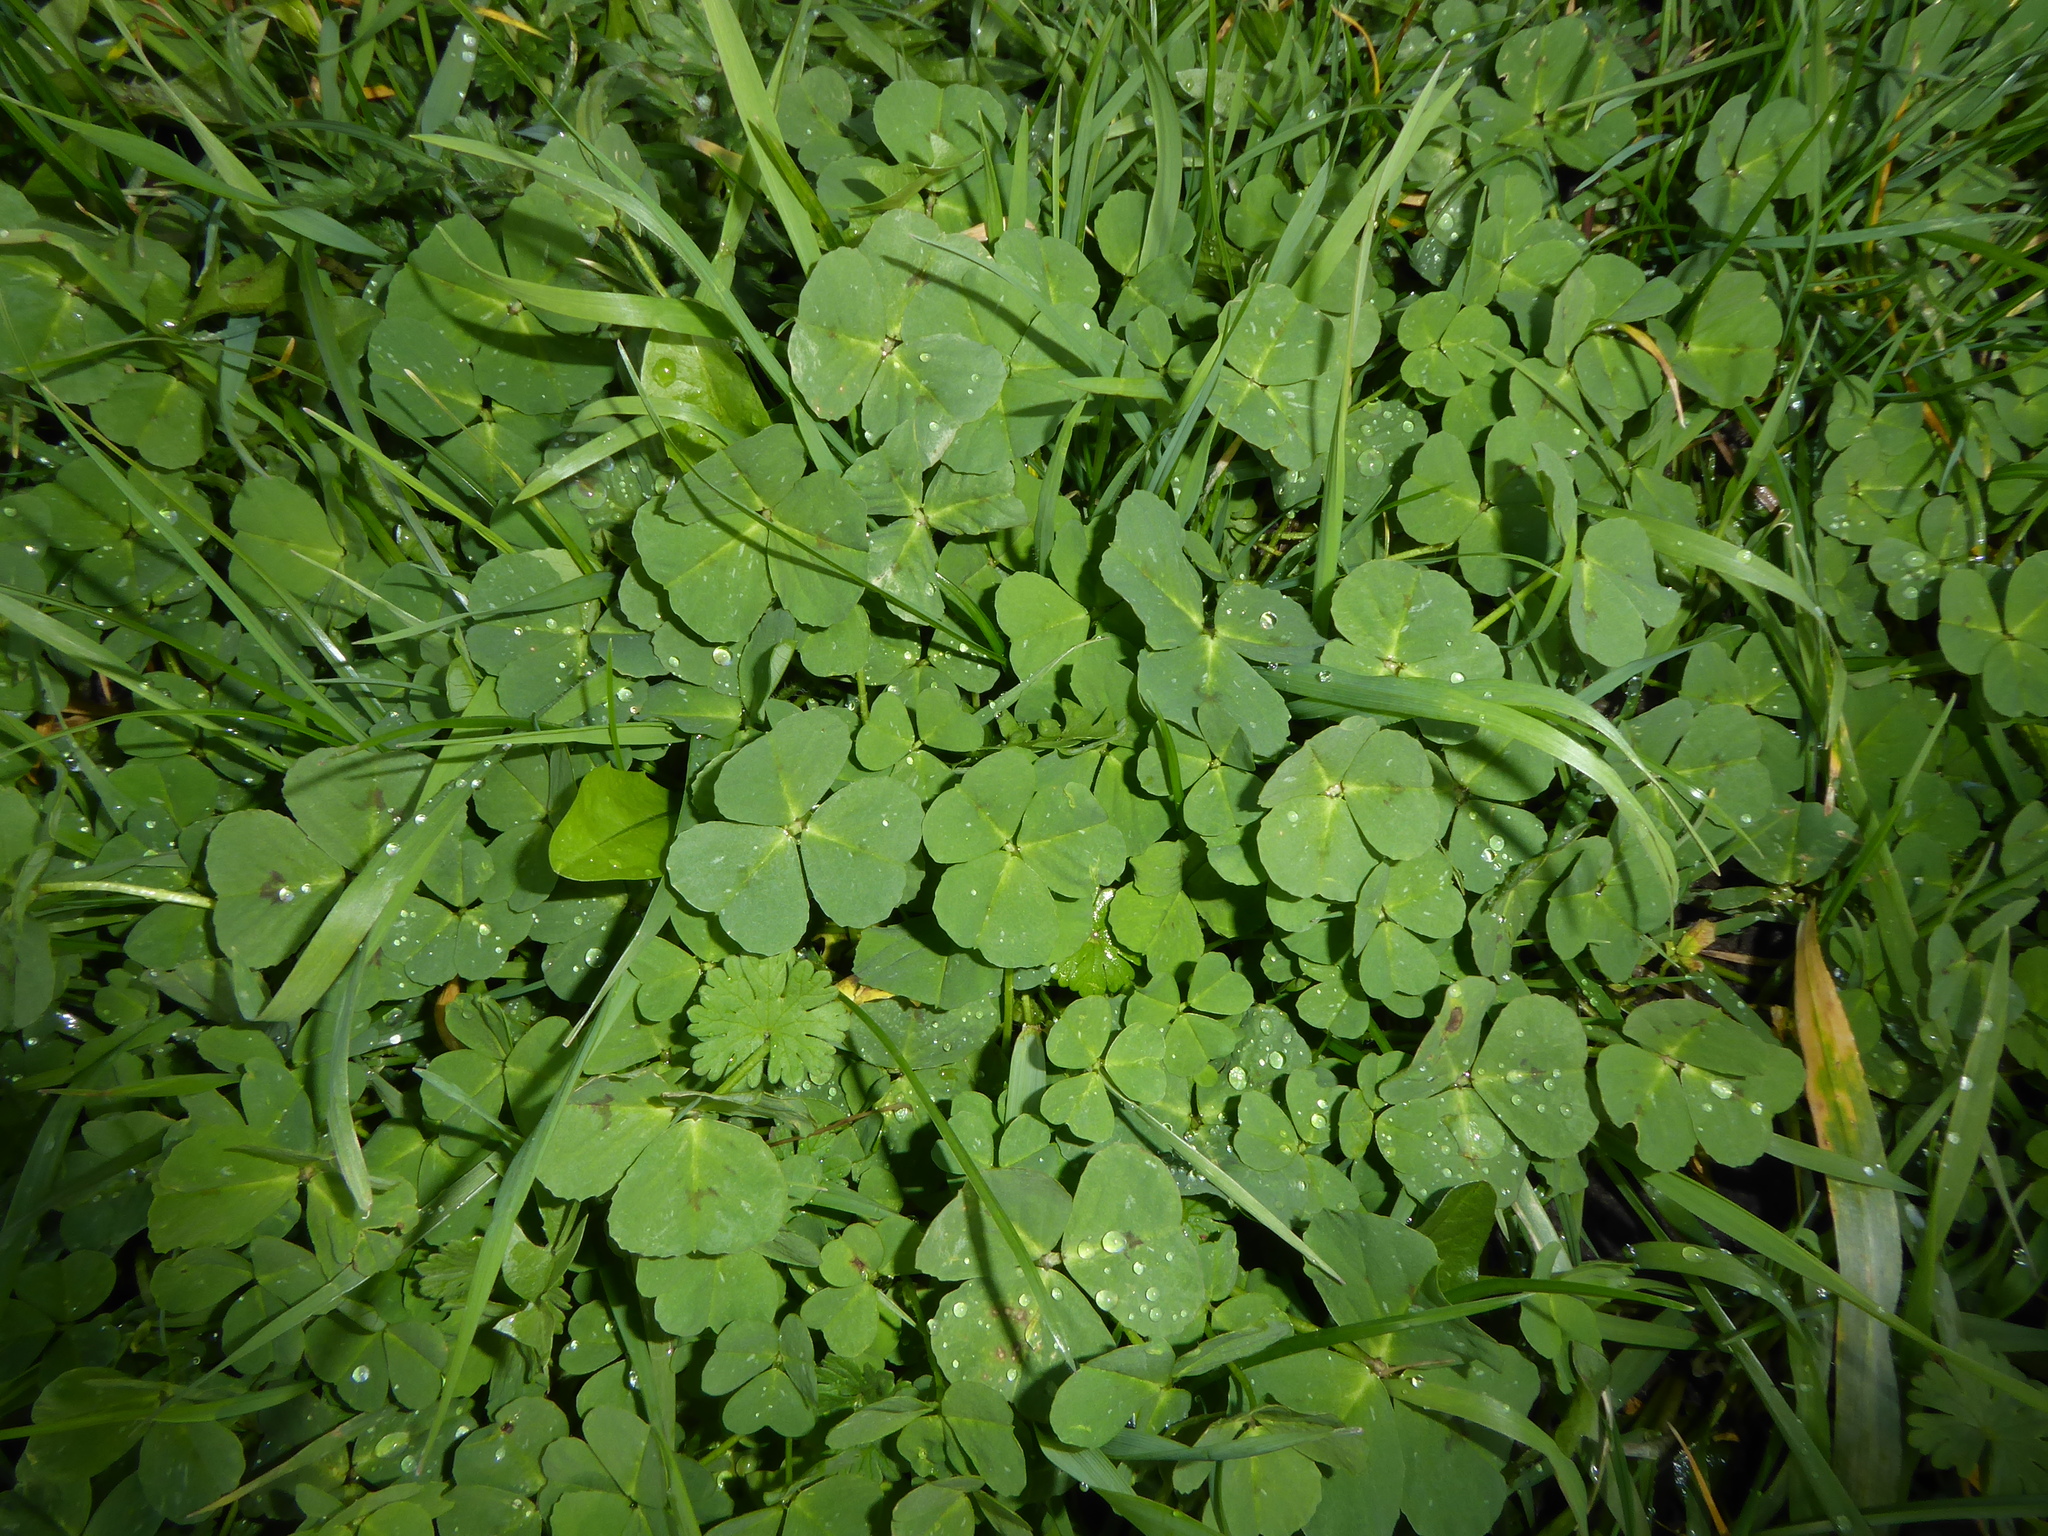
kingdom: Plantae
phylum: Tracheophyta
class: Magnoliopsida
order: Fabales
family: Fabaceae
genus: Medicago
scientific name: Medicago arabica
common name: Spotted medick
